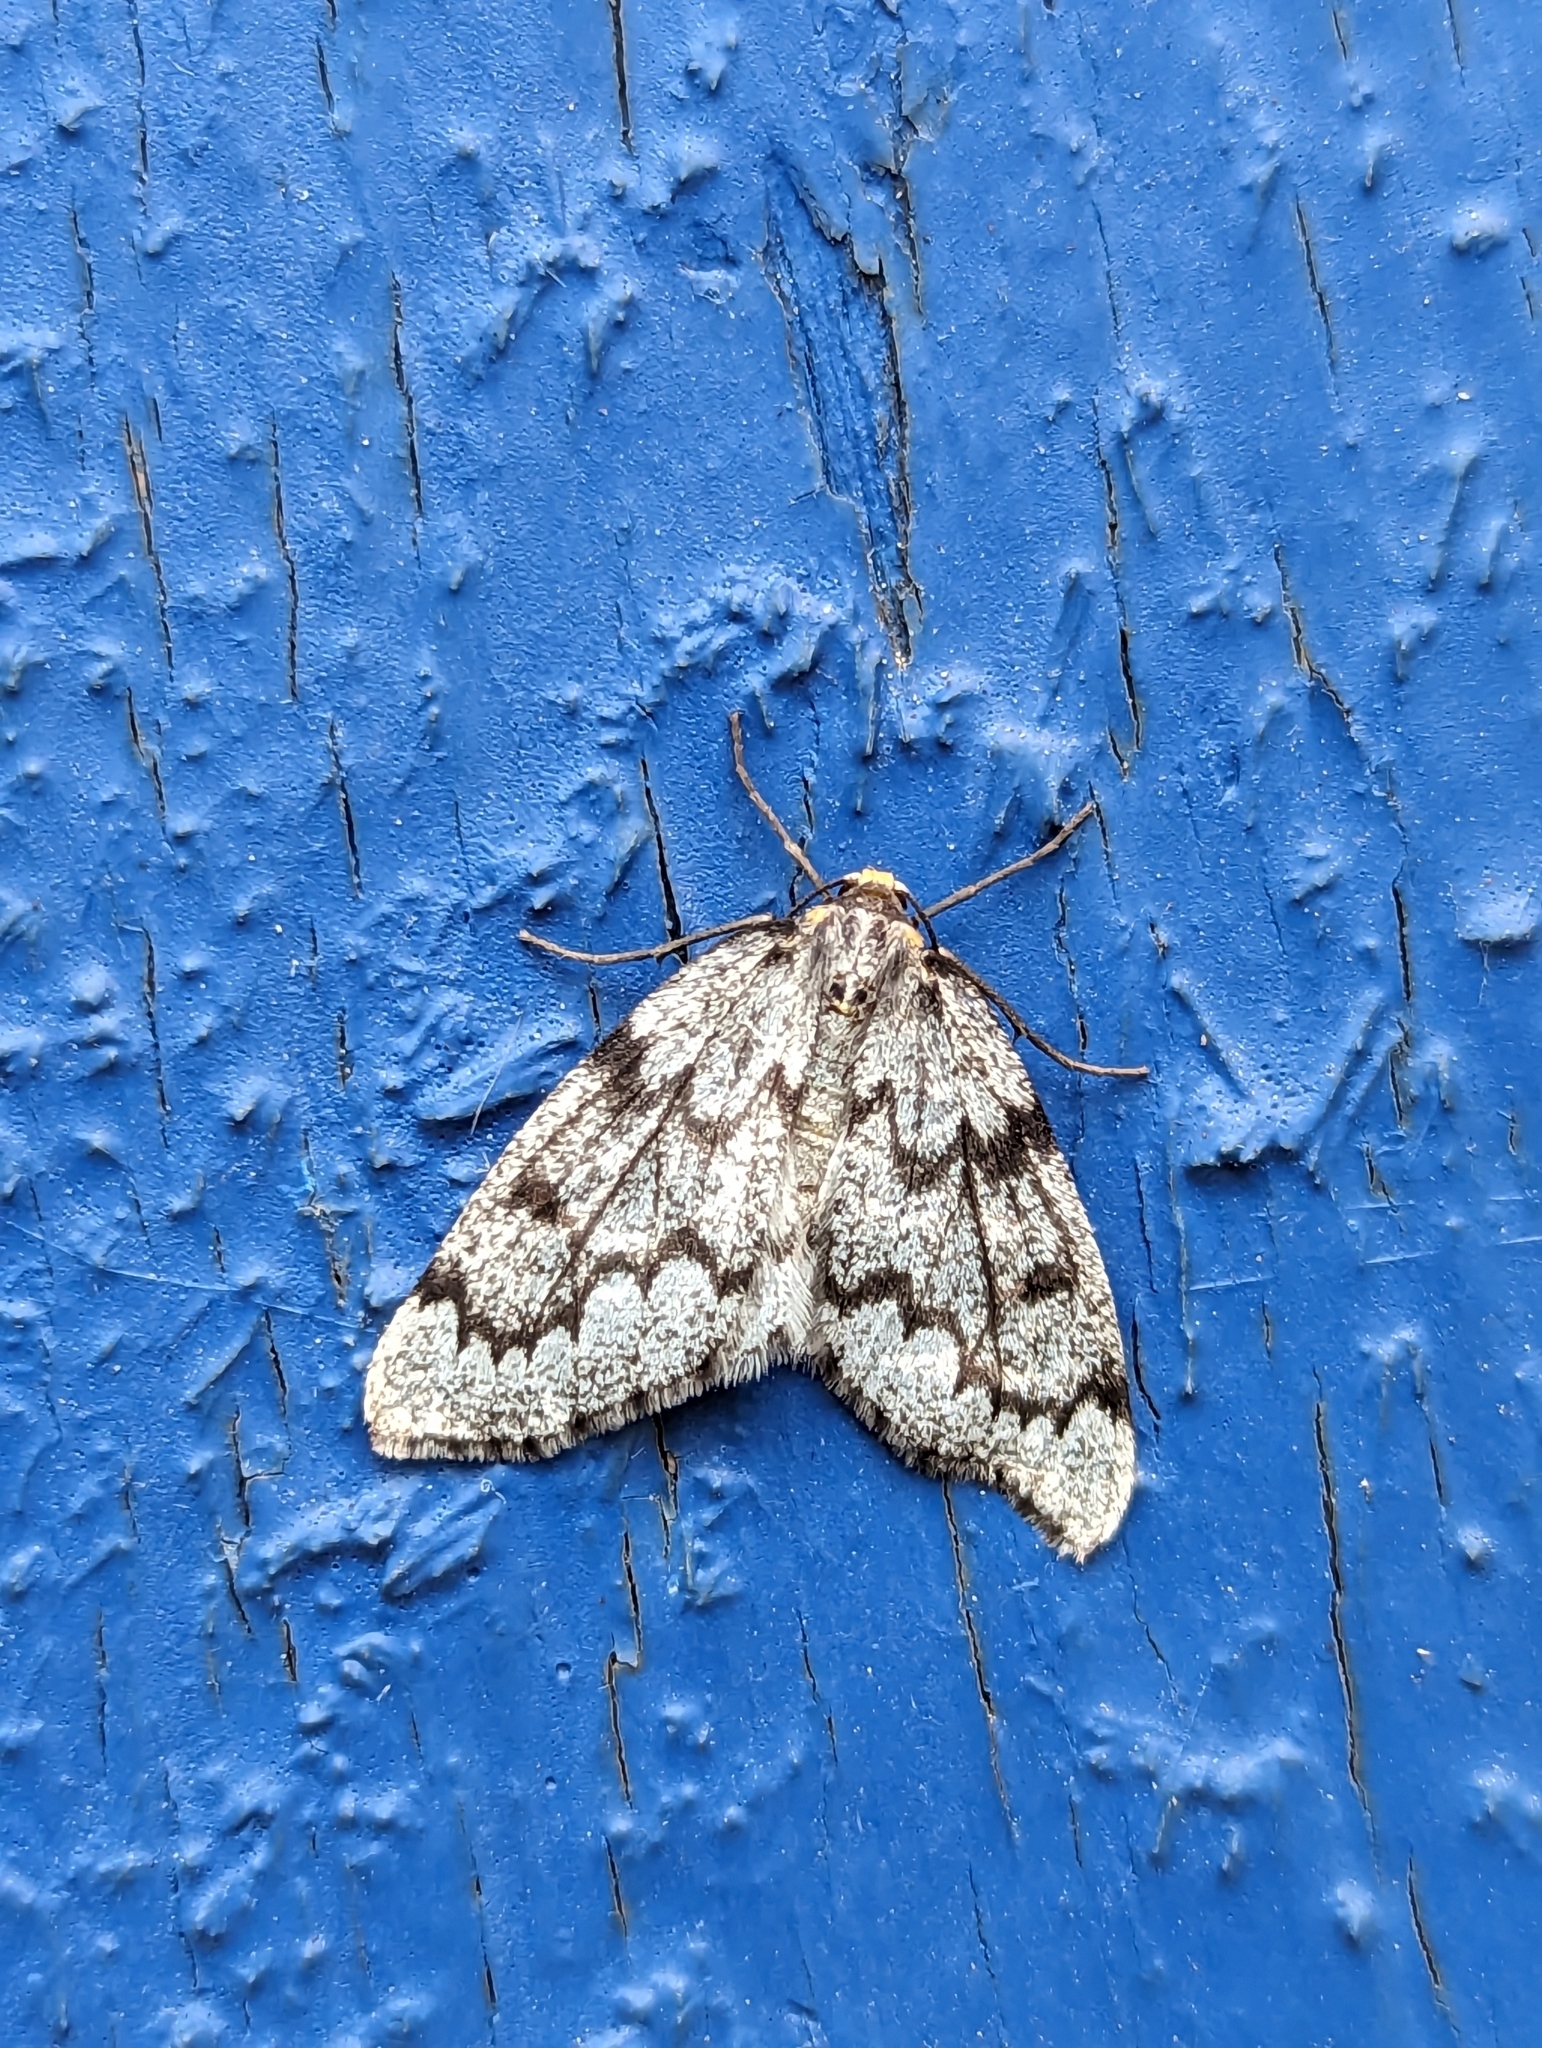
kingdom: Animalia
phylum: Arthropoda
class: Insecta
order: Lepidoptera
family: Geometridae
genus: Nepytia
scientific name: Nepytia canosaria
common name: False hemlock looper
